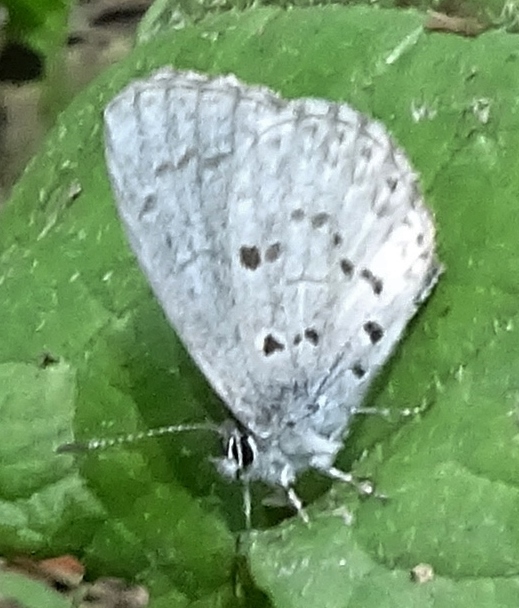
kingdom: Animalia
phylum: Arthropoda
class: Insecta
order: Lepidoptera
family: Lycaenidae
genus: Celastrina
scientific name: Celastrina lucia
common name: Lucia azure
